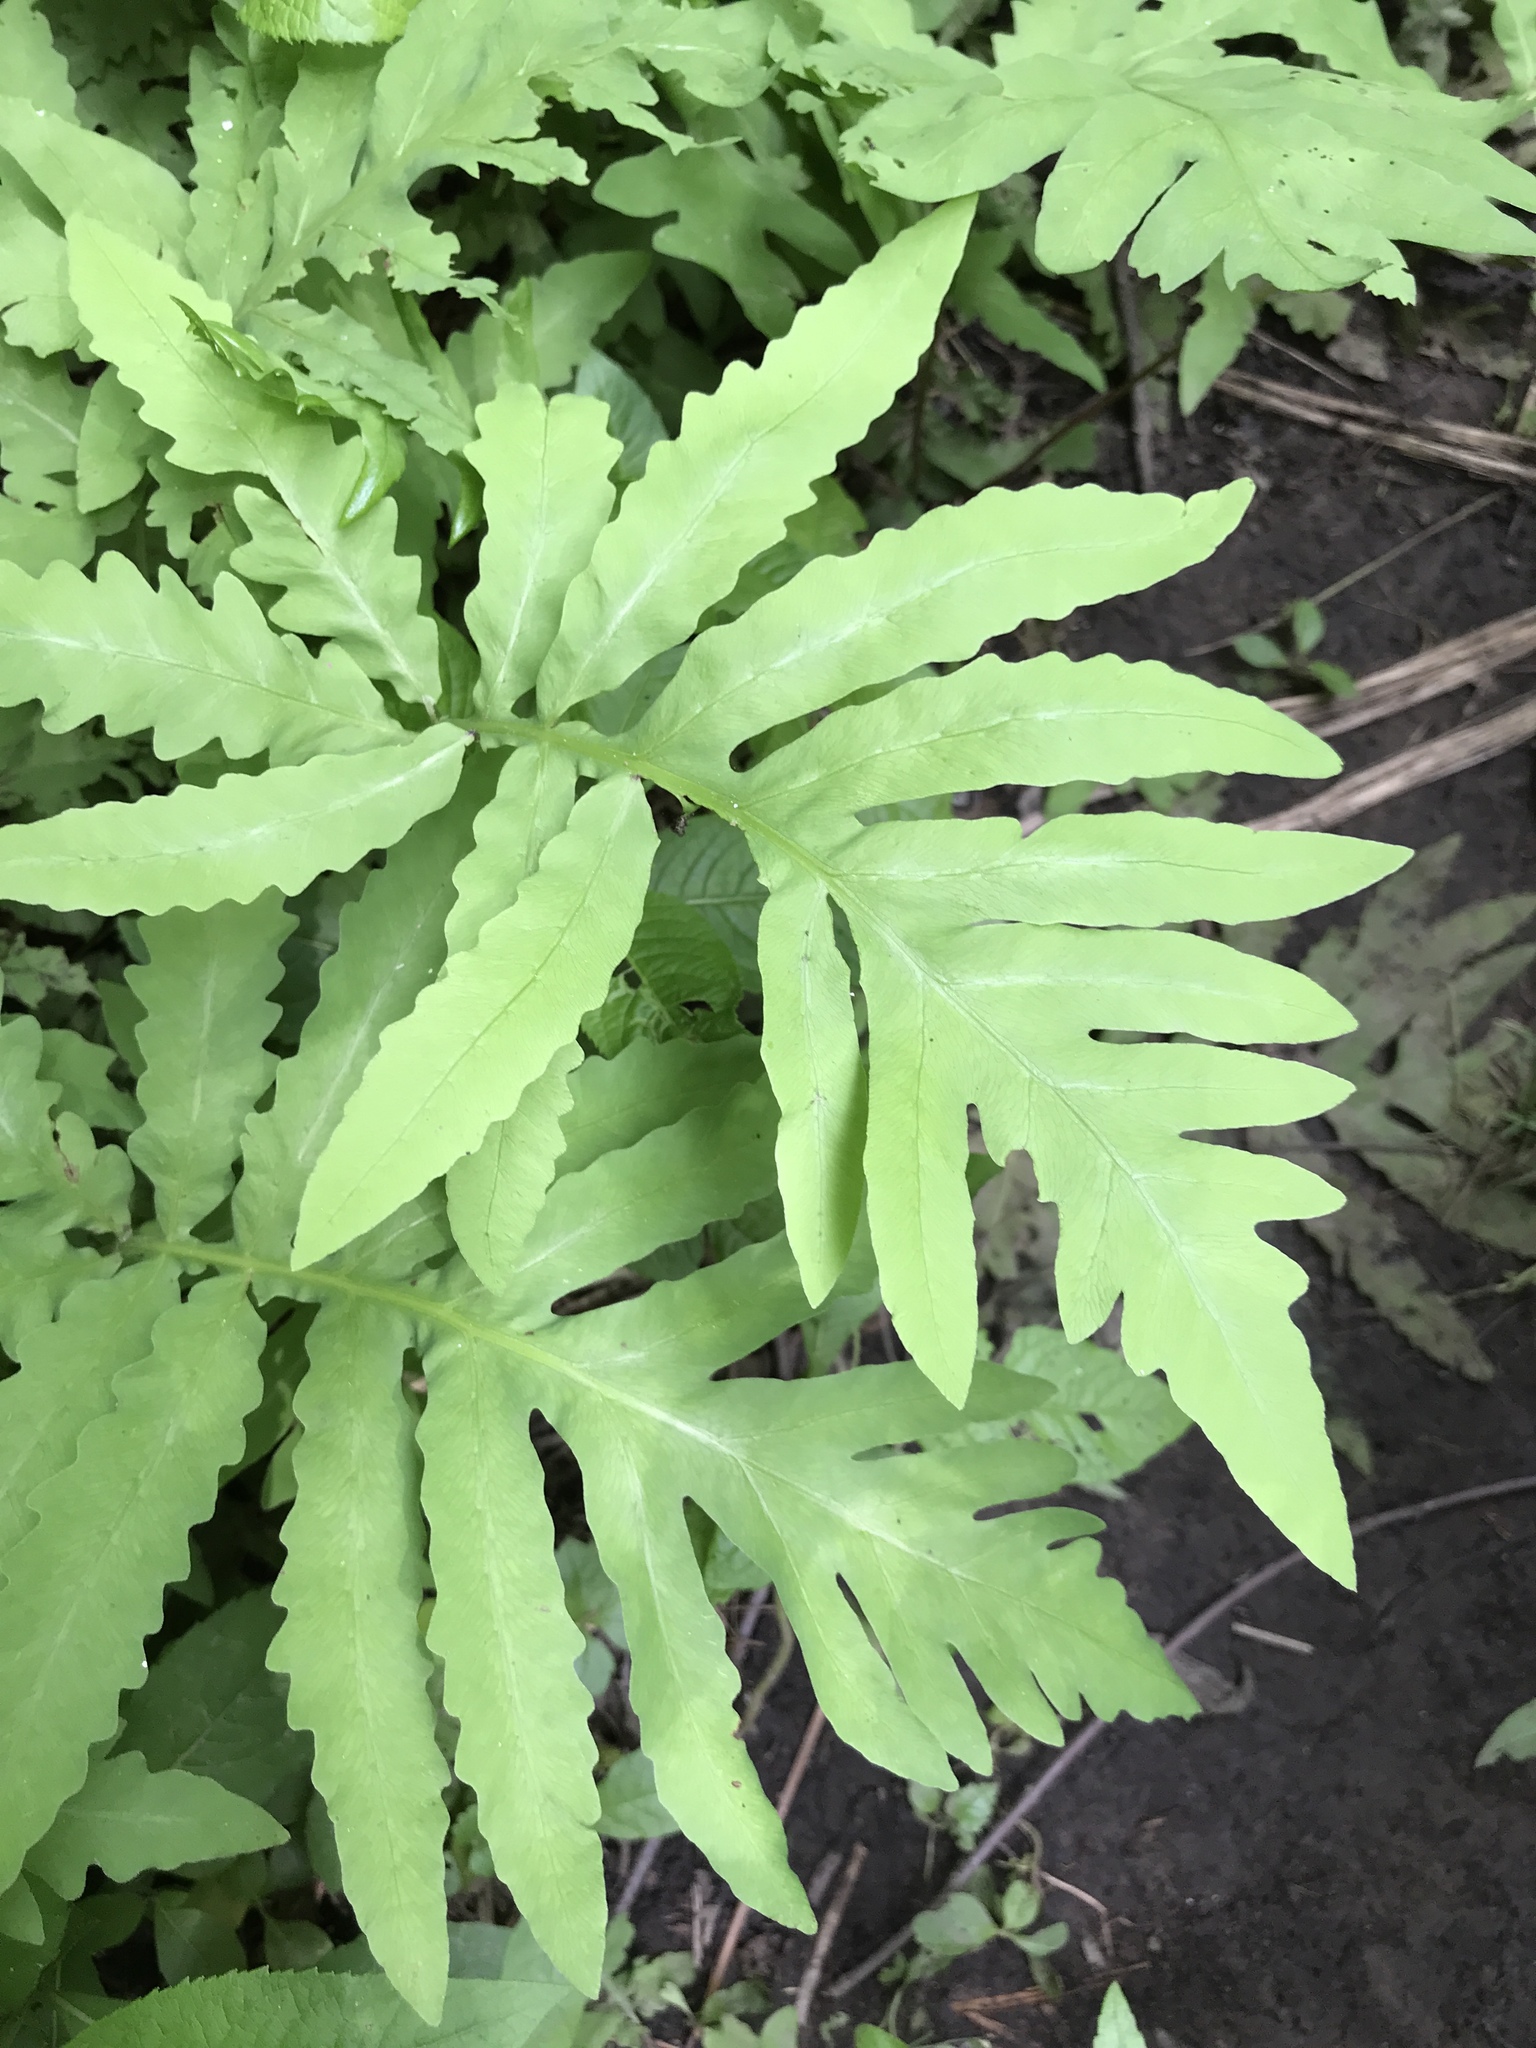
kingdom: Plantae
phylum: Tracheophyta
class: Polypodiopsida
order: Polypodiales
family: Onocleaceae
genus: Onoclea
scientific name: Onoclea sensibilis
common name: Sensitive fern
